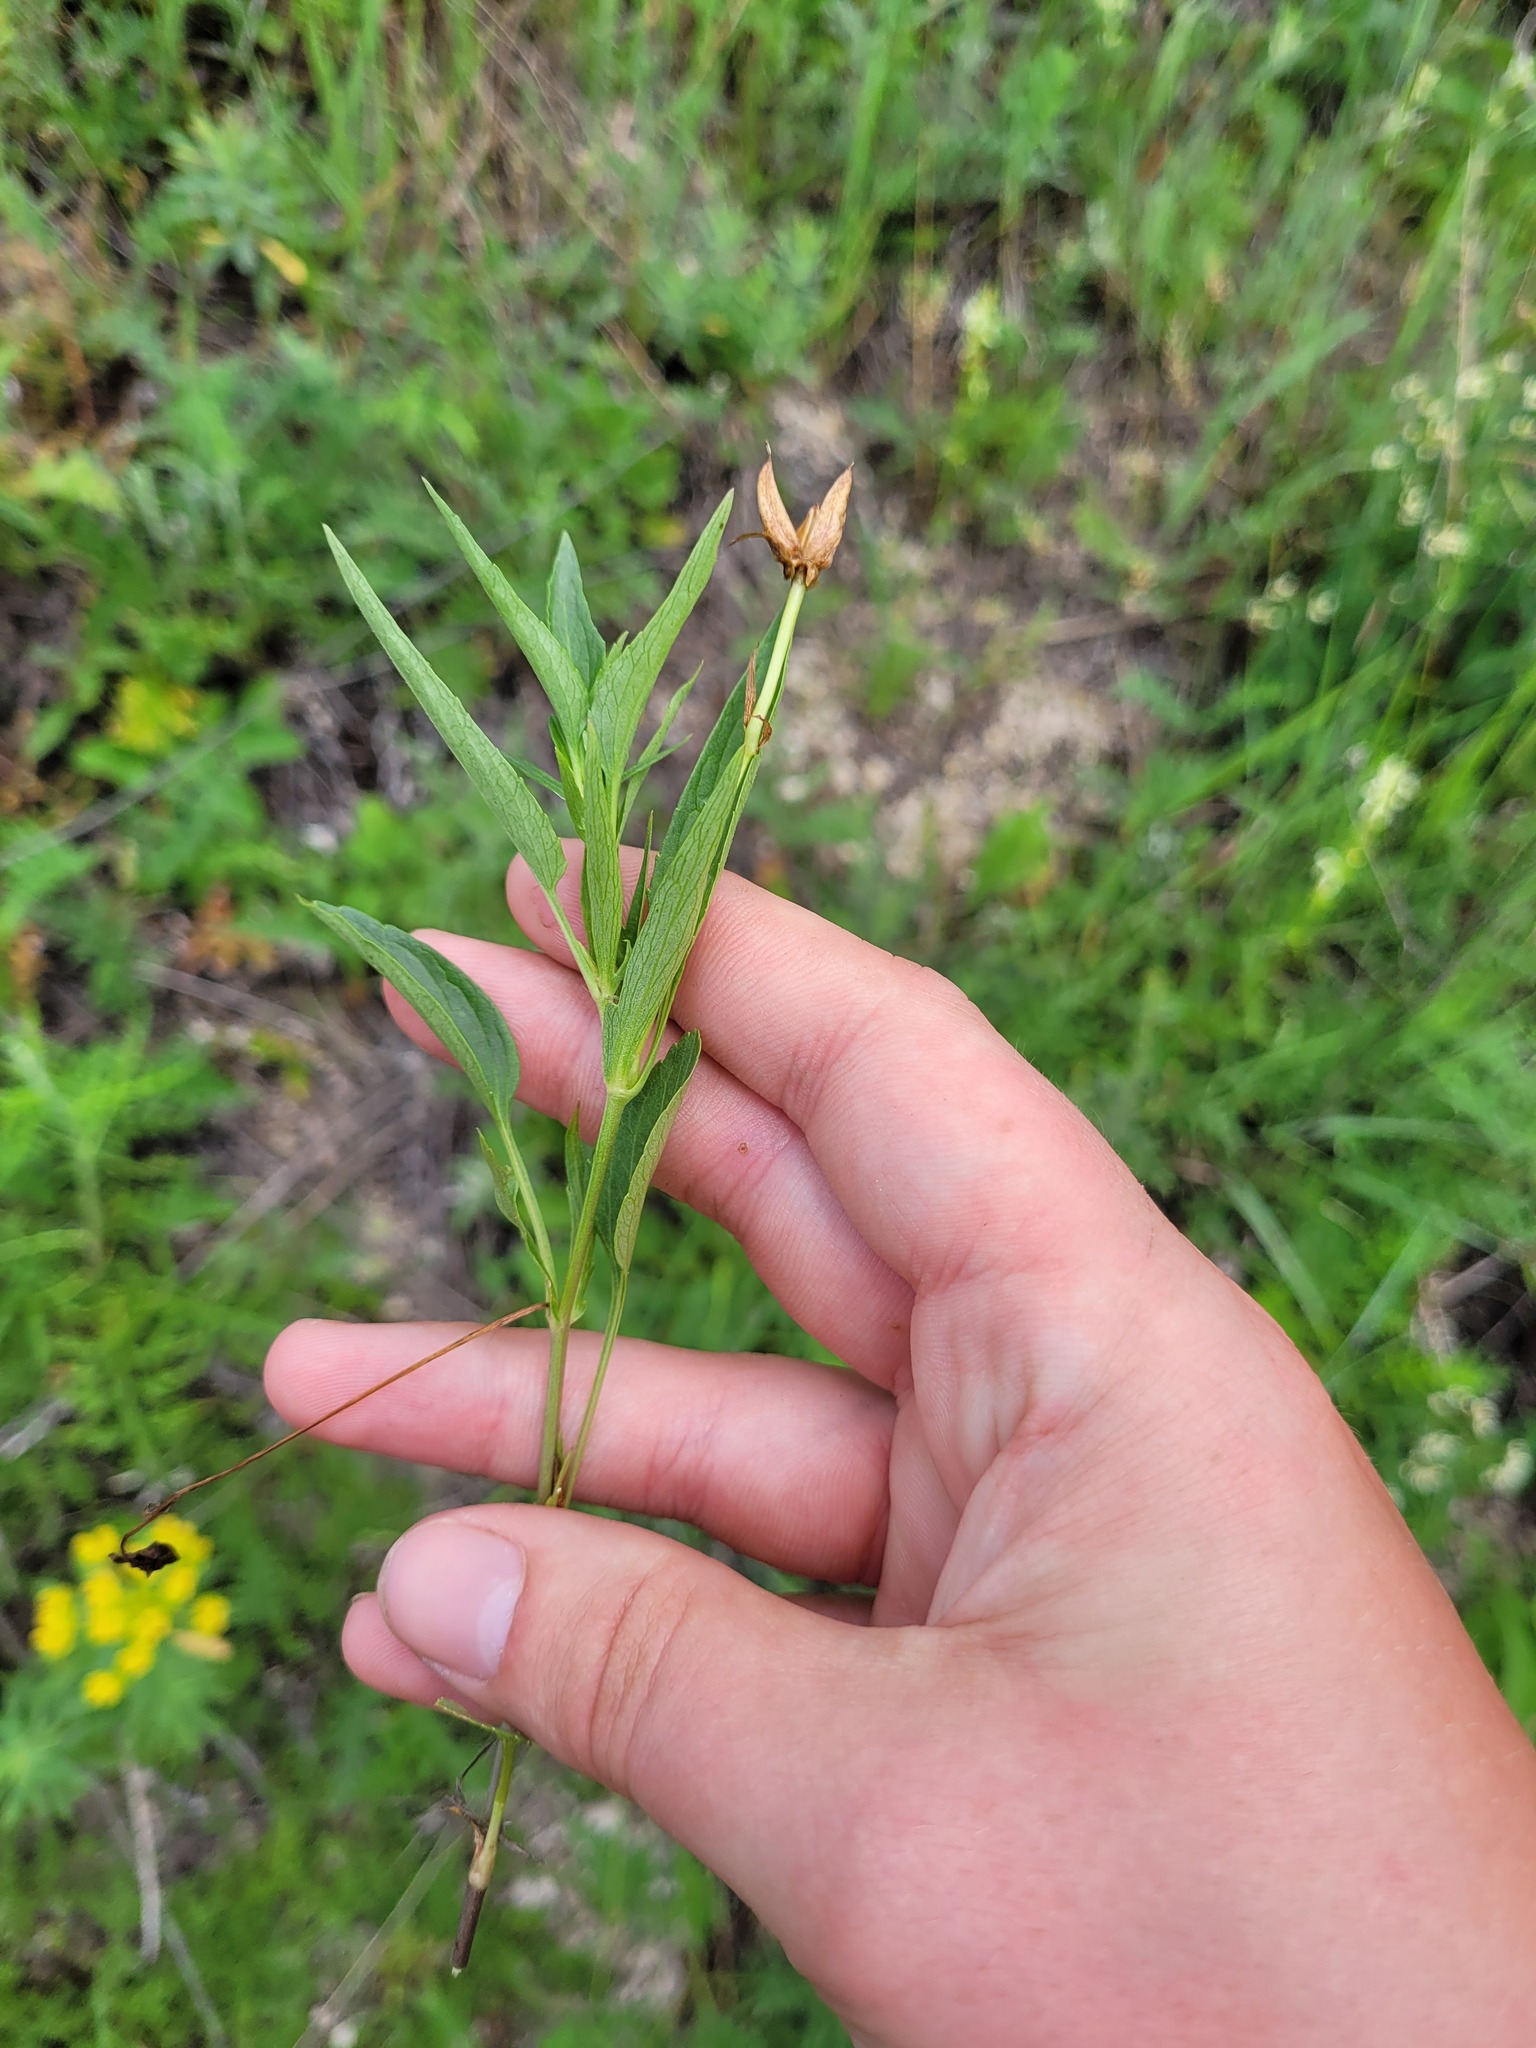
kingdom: Plantae
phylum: Tracheophyta
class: Magnoliopsida
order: Malpighiales
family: Violaceae
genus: Viola
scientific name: Viola pumila
